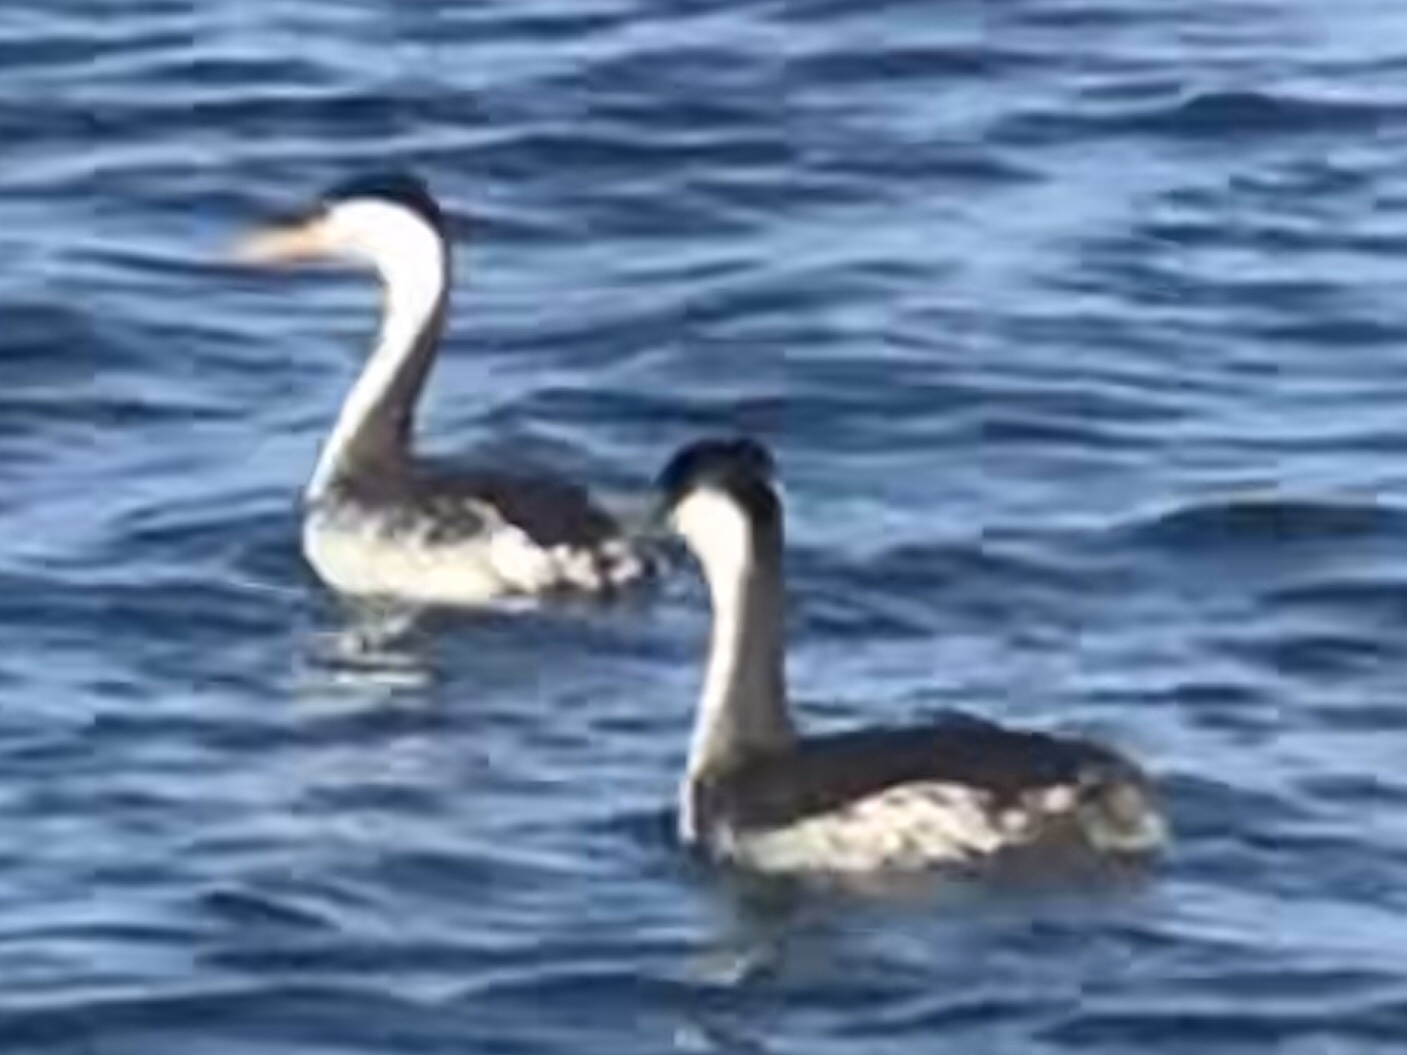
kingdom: Animalia
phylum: Chordata
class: Aves
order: Podicipediformes
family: Podicipedidae
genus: Aechmophorus
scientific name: Aechmophorus occidentalis
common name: Western grebe
